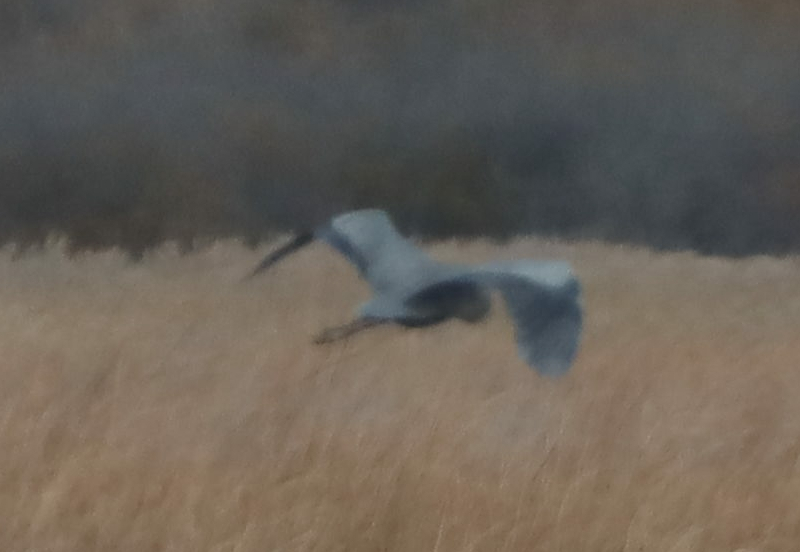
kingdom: Animalia
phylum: Chordata
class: Aves
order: Pelecaniformes
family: Ardeidae
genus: Ardea
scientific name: Ardea herodias
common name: Great blue heron
